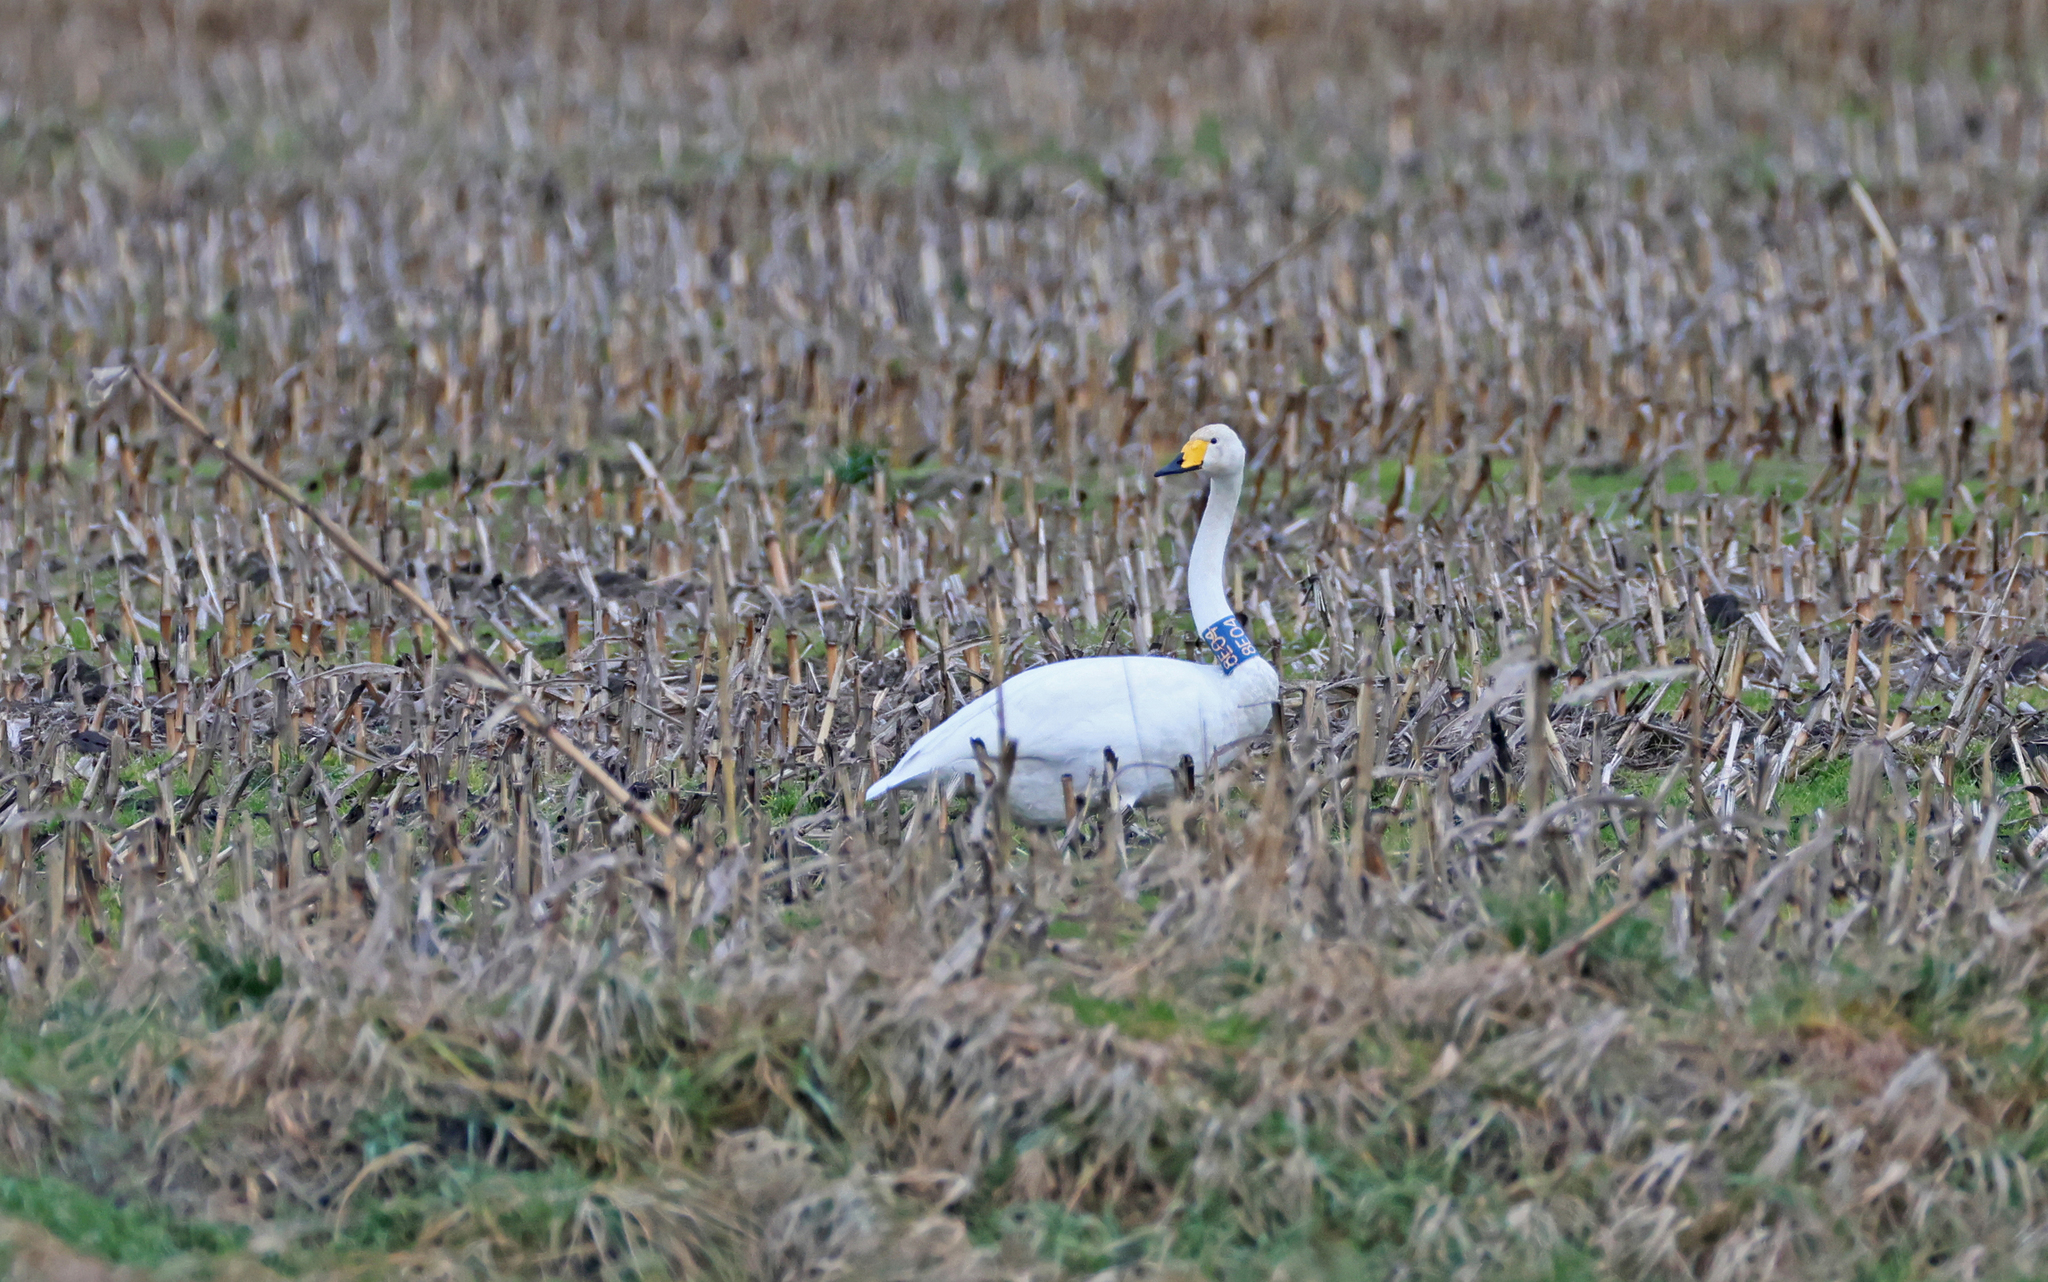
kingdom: Animalia
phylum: Chordata
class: Aves
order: Anseriformes
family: Anatidae
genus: Cygnus
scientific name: Cygnus cygnus
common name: Whooper swan
